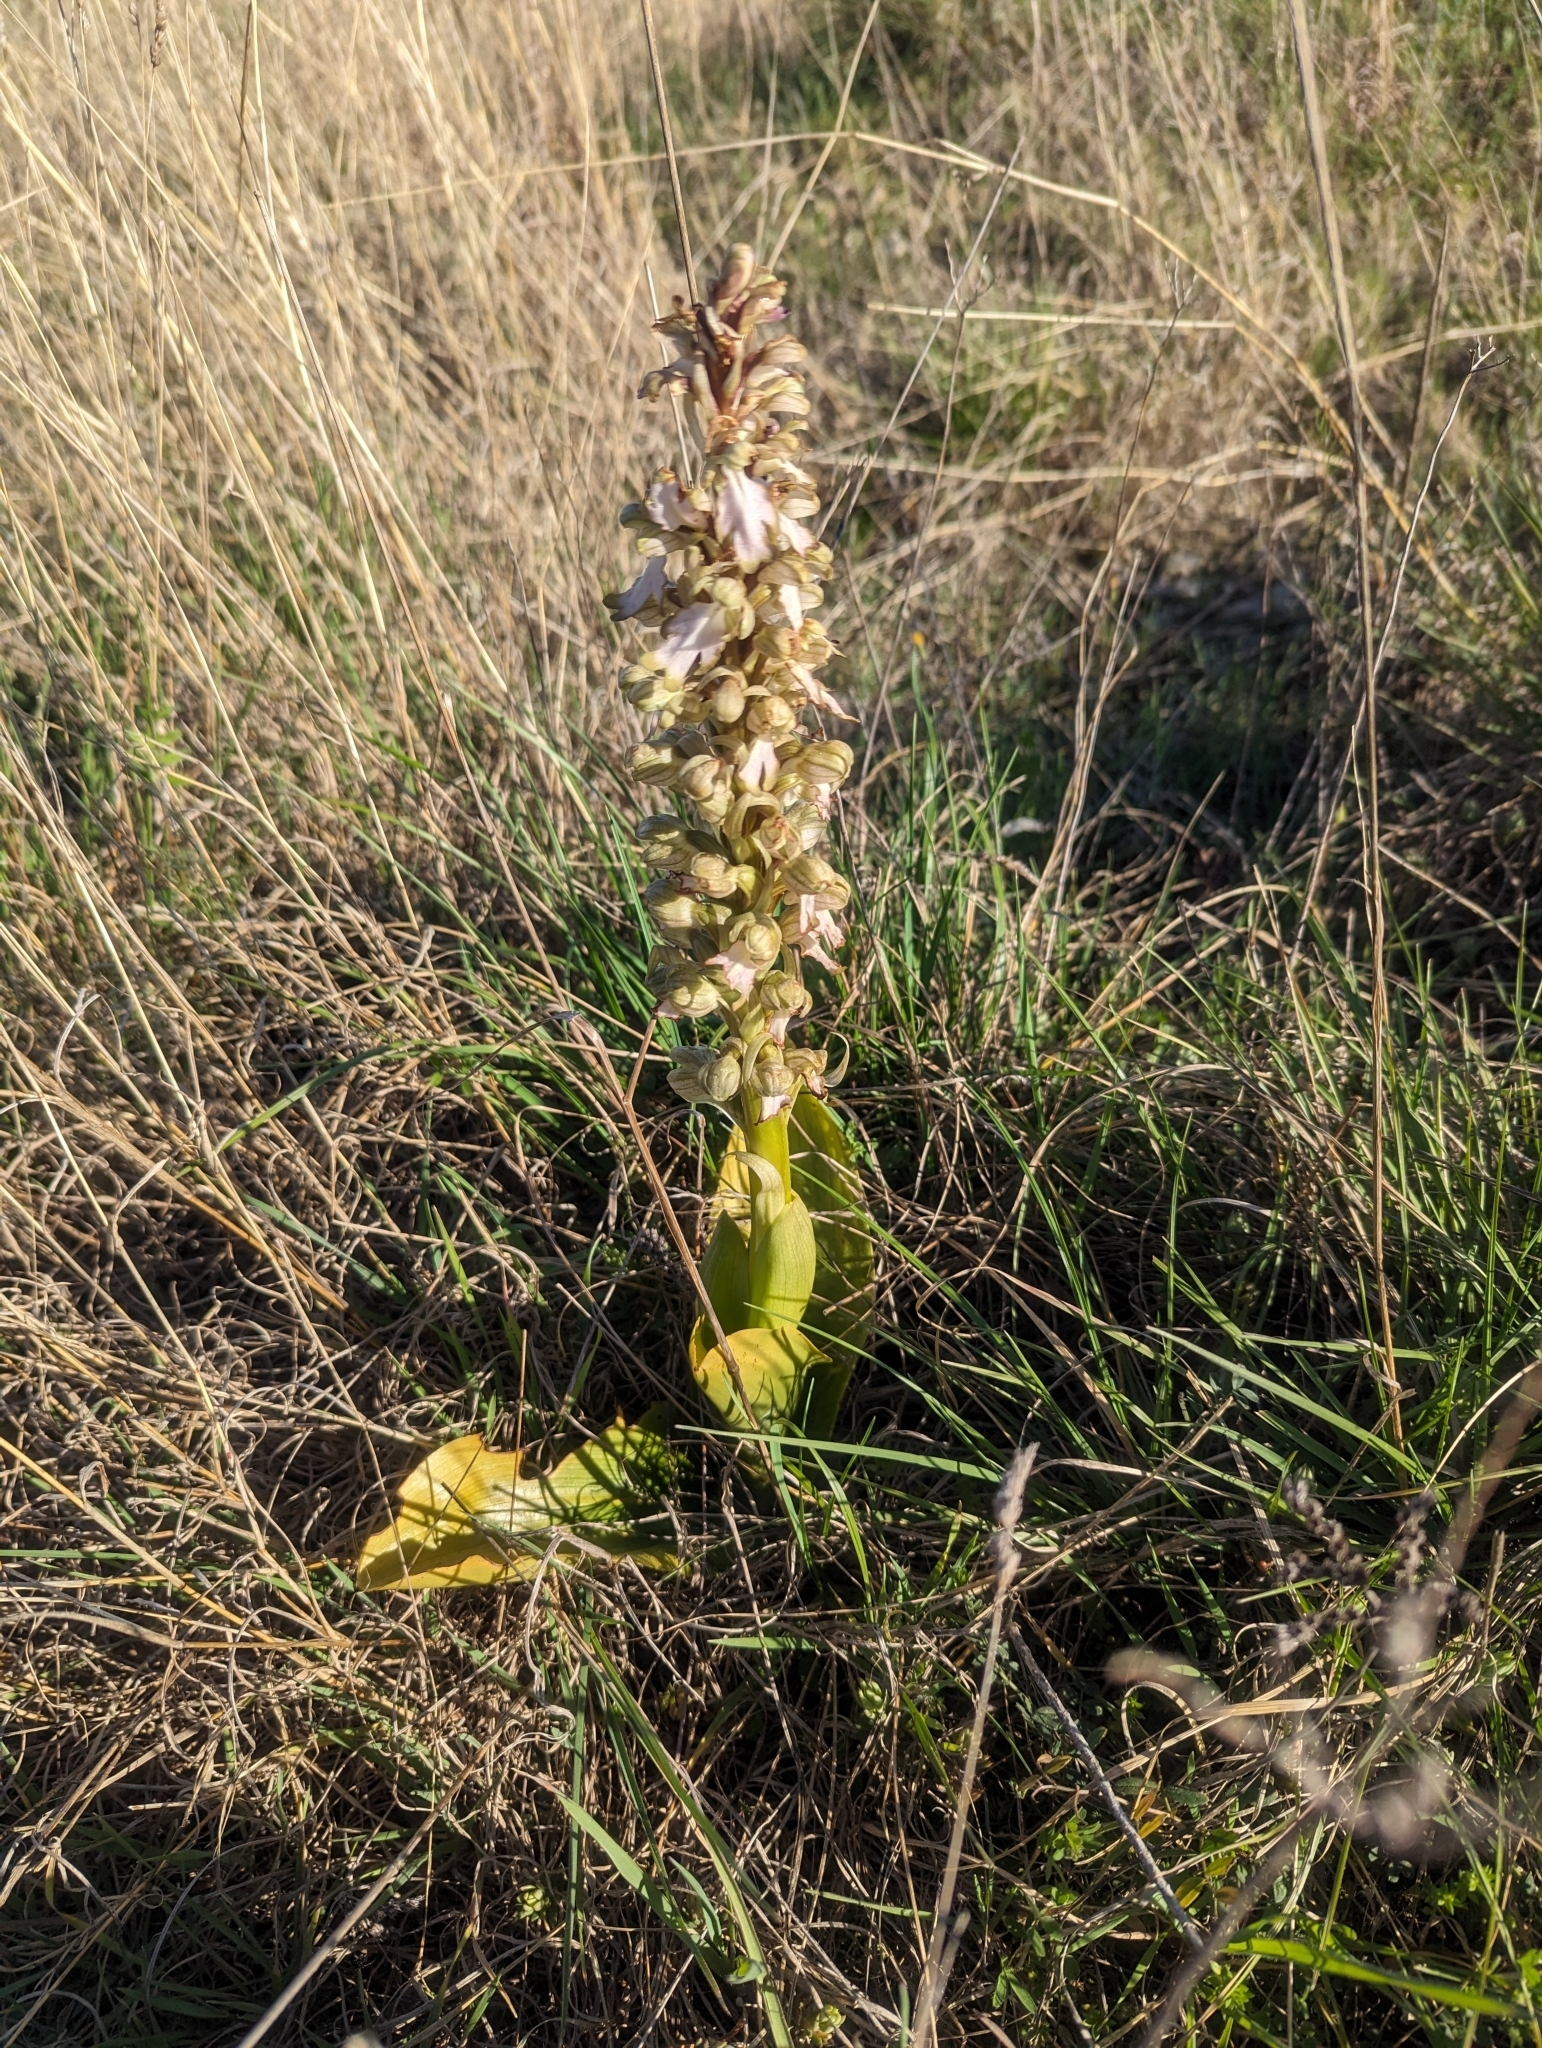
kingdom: Plantae
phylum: Tracheophyta
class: Liliopsida
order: Asparagales
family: Orchidaceae
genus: Himantoglossum
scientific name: Himantoglossum robertianum
